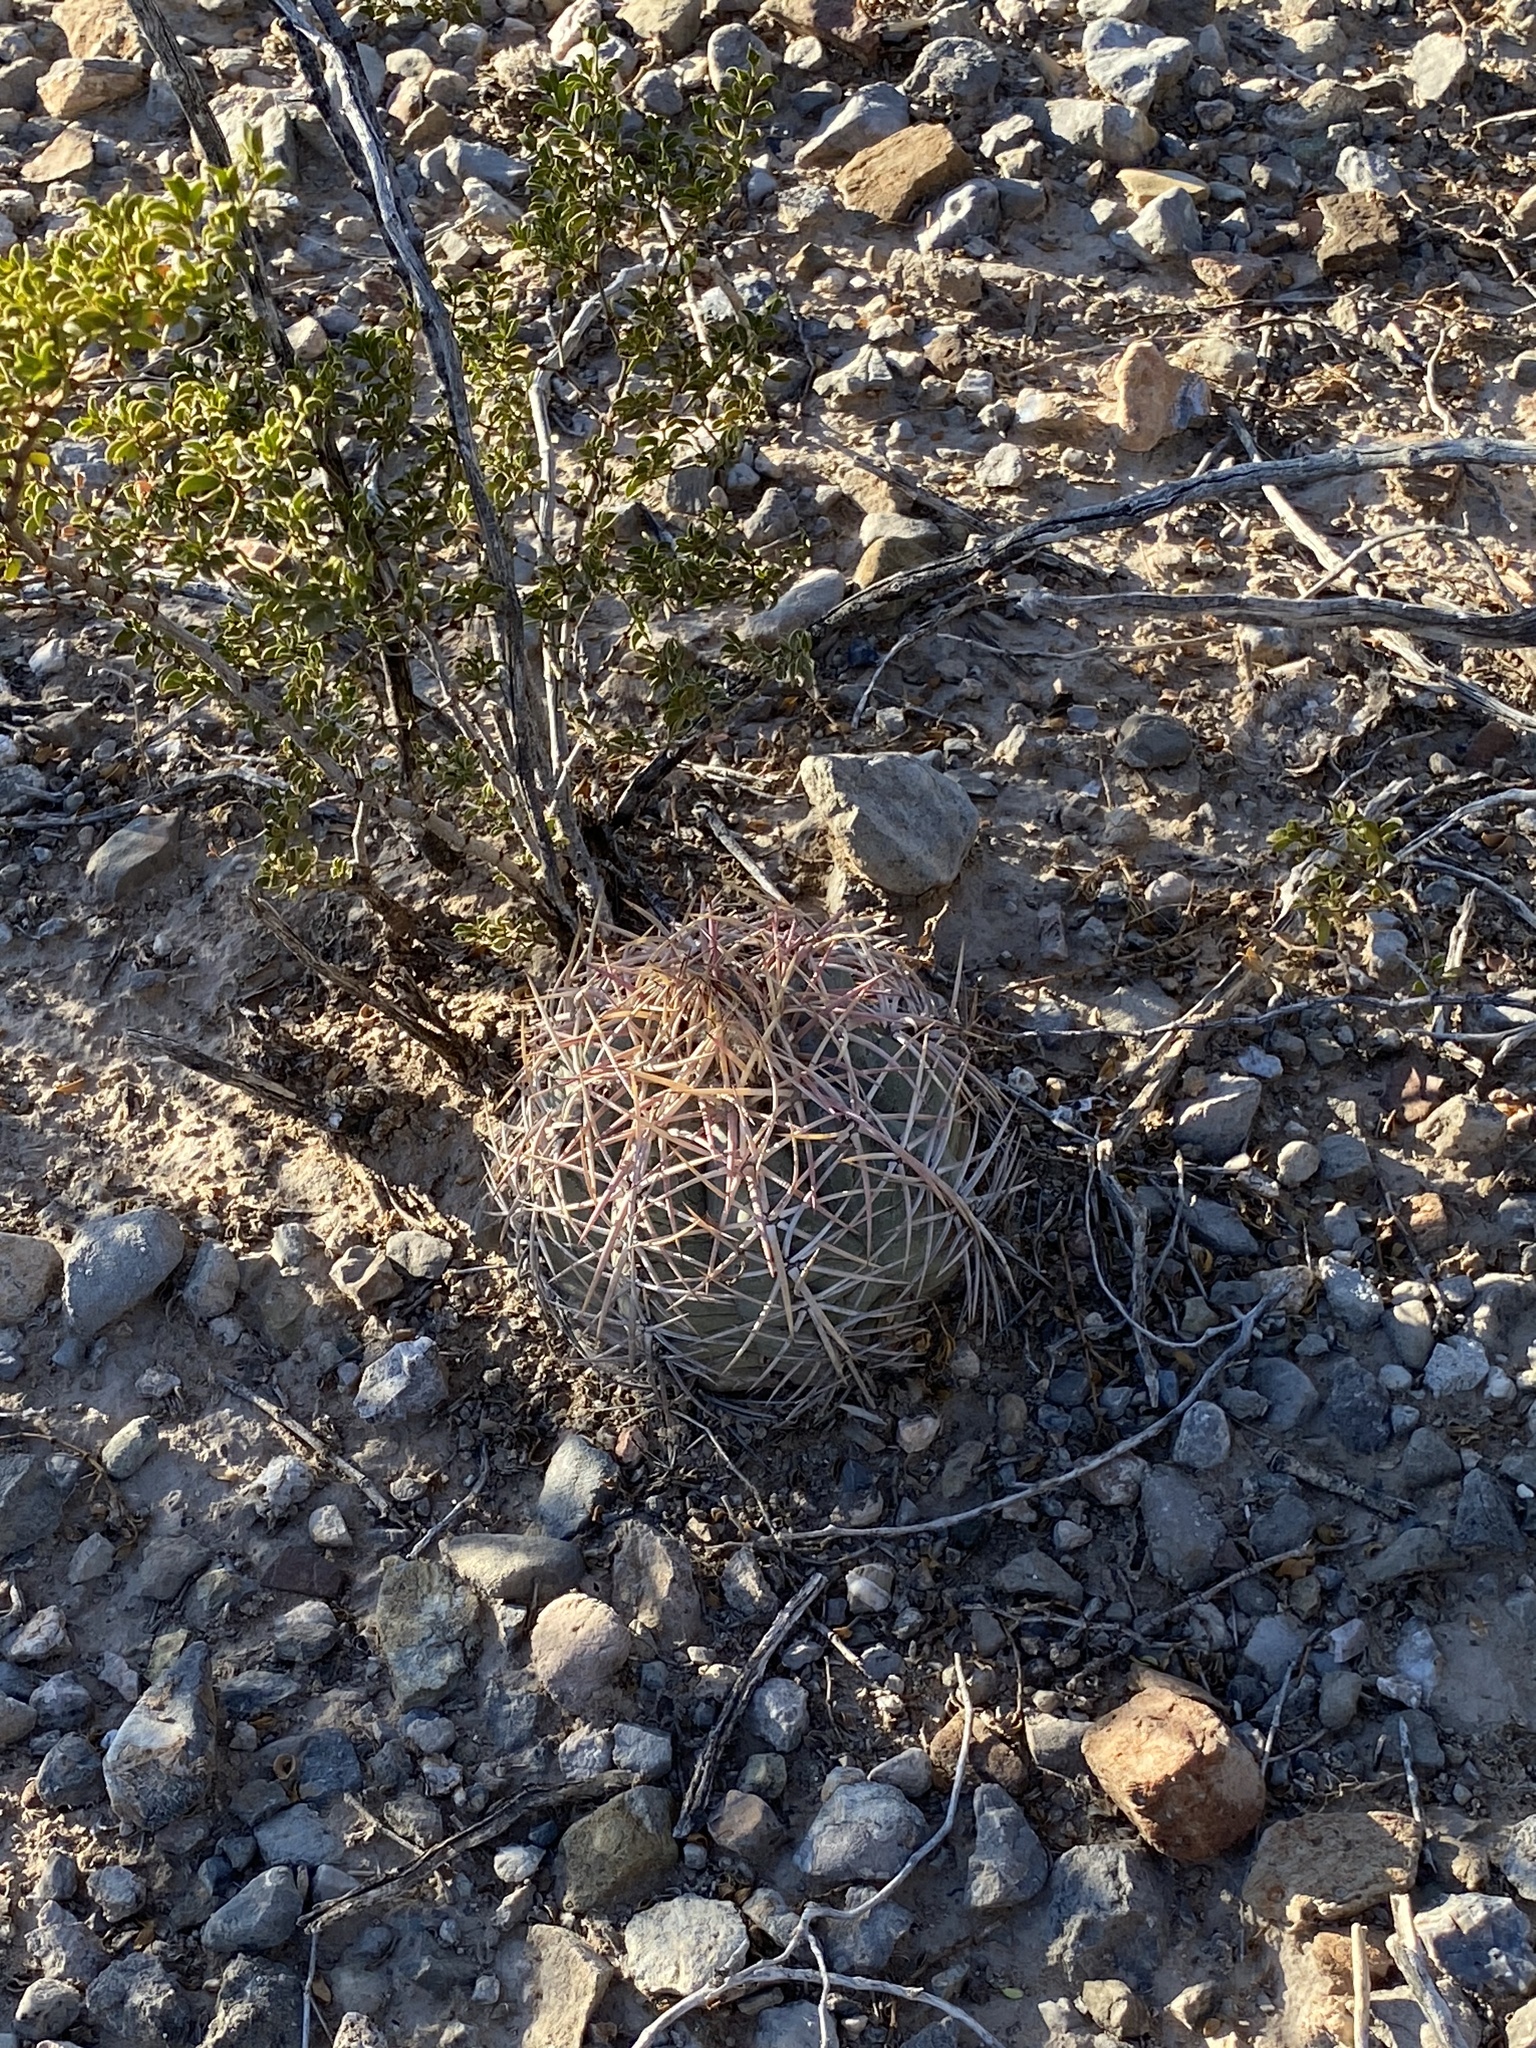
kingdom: Plantae
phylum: Tracheophyta
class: Magnoliopsida
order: Caryophyllales
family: Cactaceae
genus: Echinocactus
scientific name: Echinocactus horizonthalonius
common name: Devilshead
